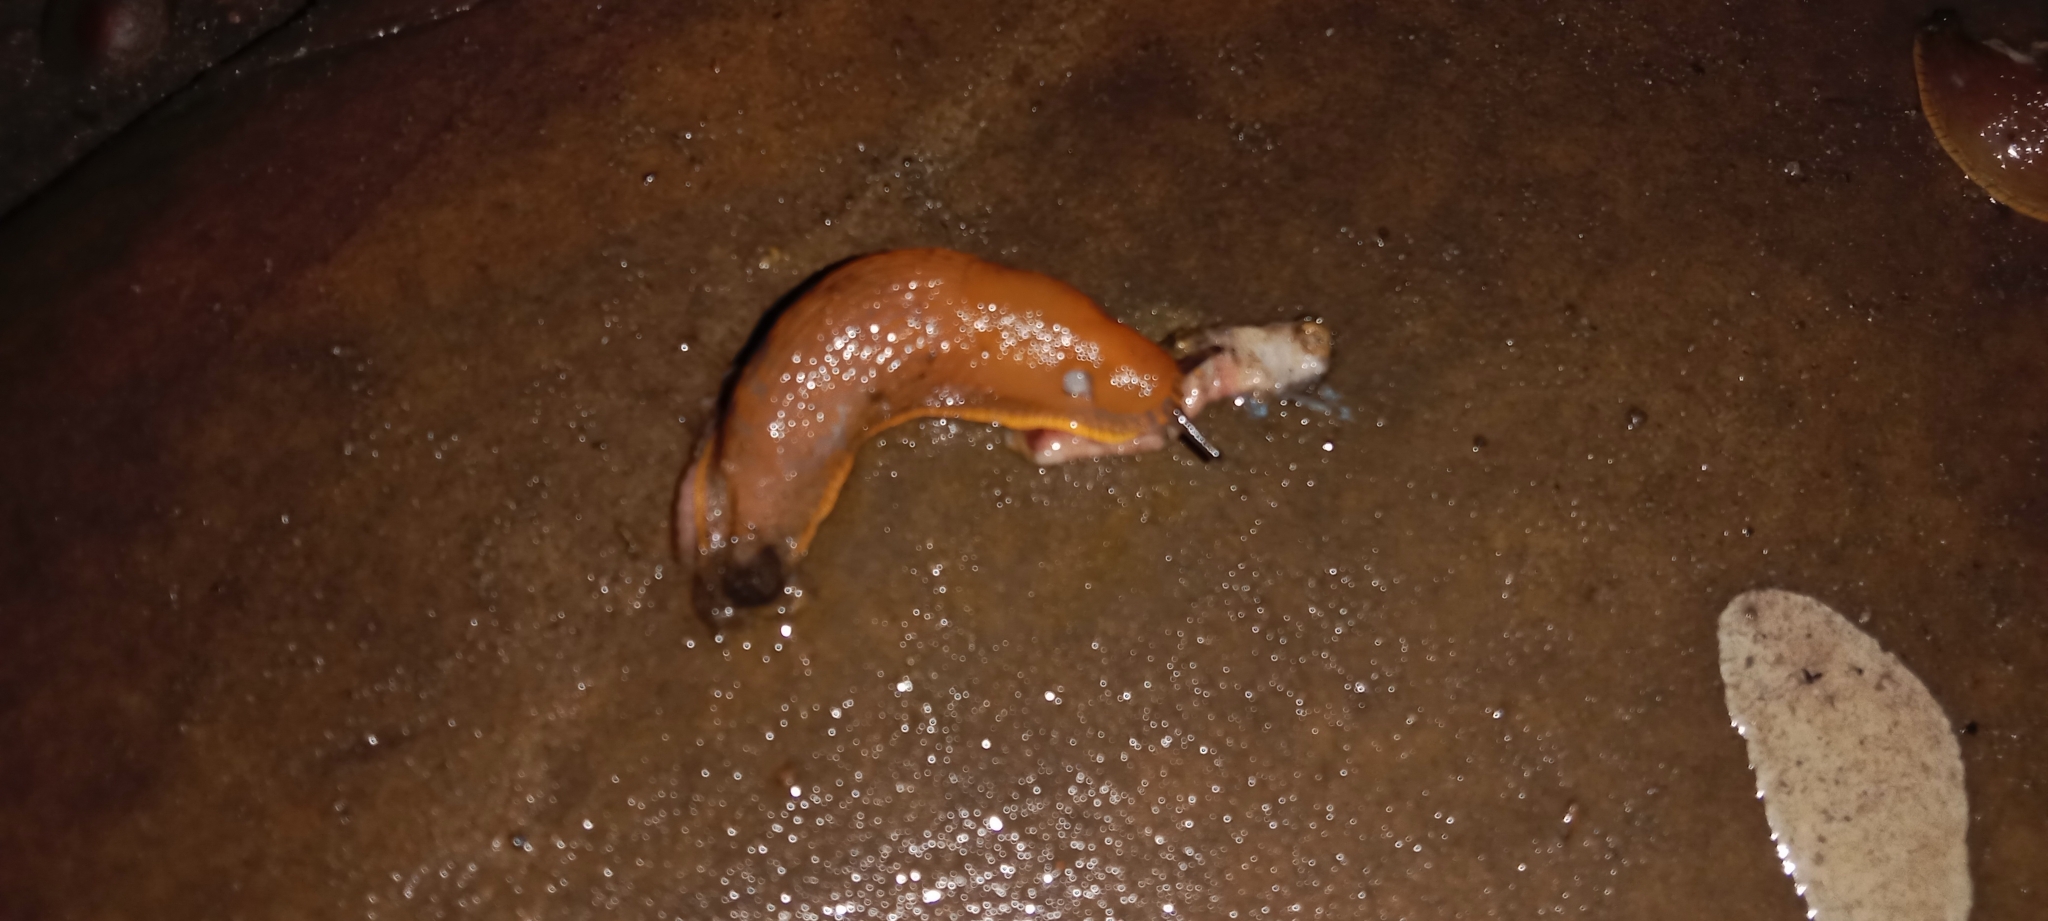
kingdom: Animalia
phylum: Mollusca
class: Gastropoda
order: Stylommatophora
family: Arionidae
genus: Arion
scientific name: Arion vulgaris
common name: Lusitanian slug
